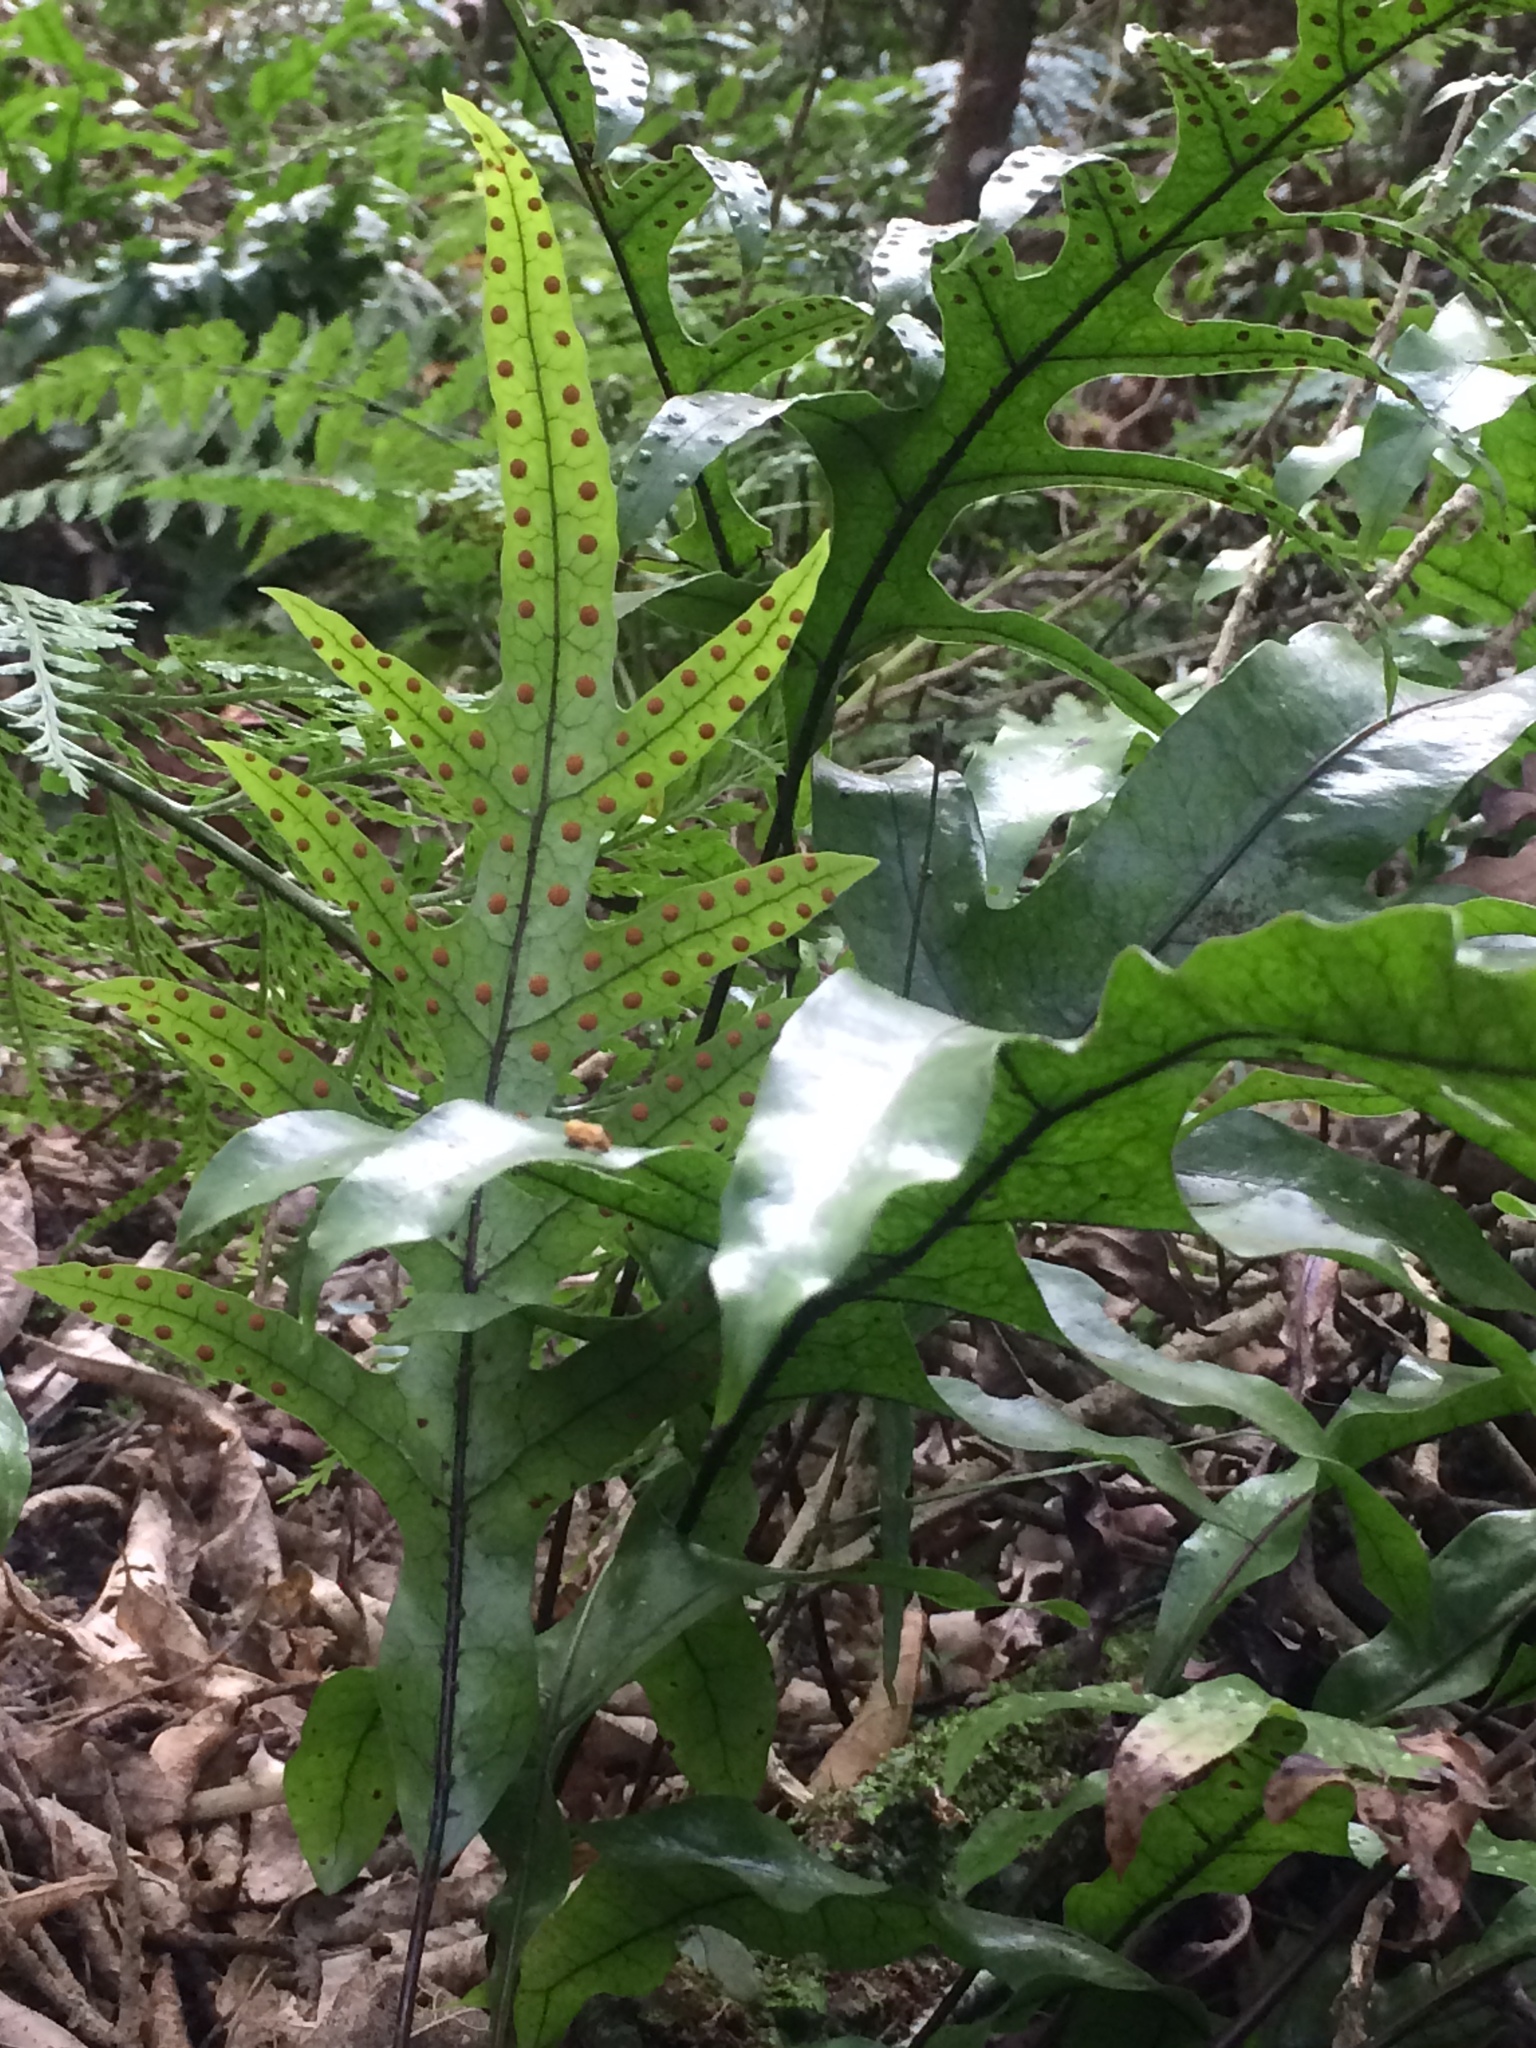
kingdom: Plantae
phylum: Tracheophyta
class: Polypodiopsida
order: Polypodiales
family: Polypodiaceae
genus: Lecanopteris
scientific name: Lecanopteris pustulata
